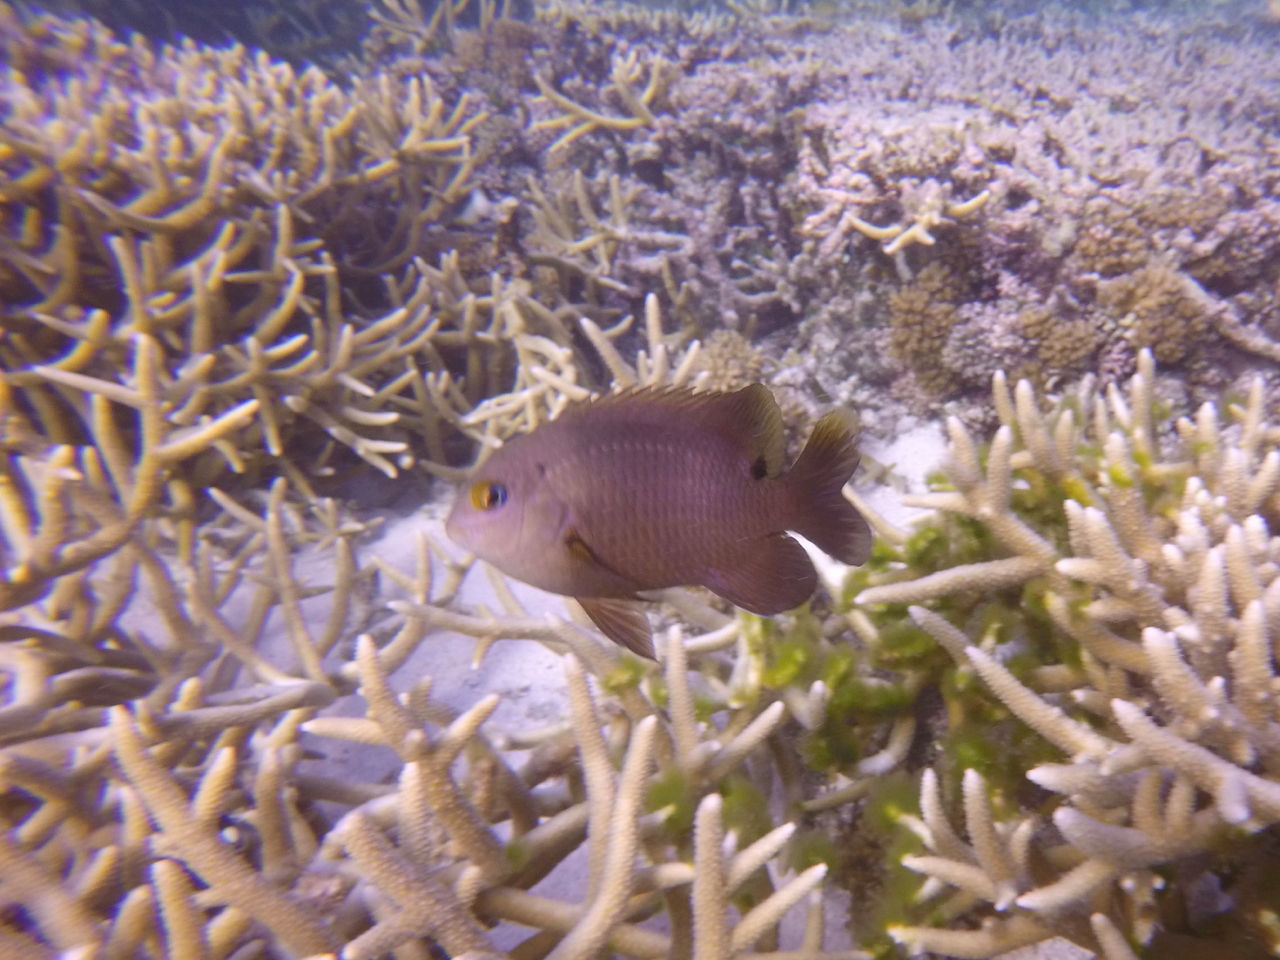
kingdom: Animalia
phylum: Chordata
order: Perciformes
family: Pomacentridae
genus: Stegastes
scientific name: Stegastes nigricans
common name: Dusky gregory
